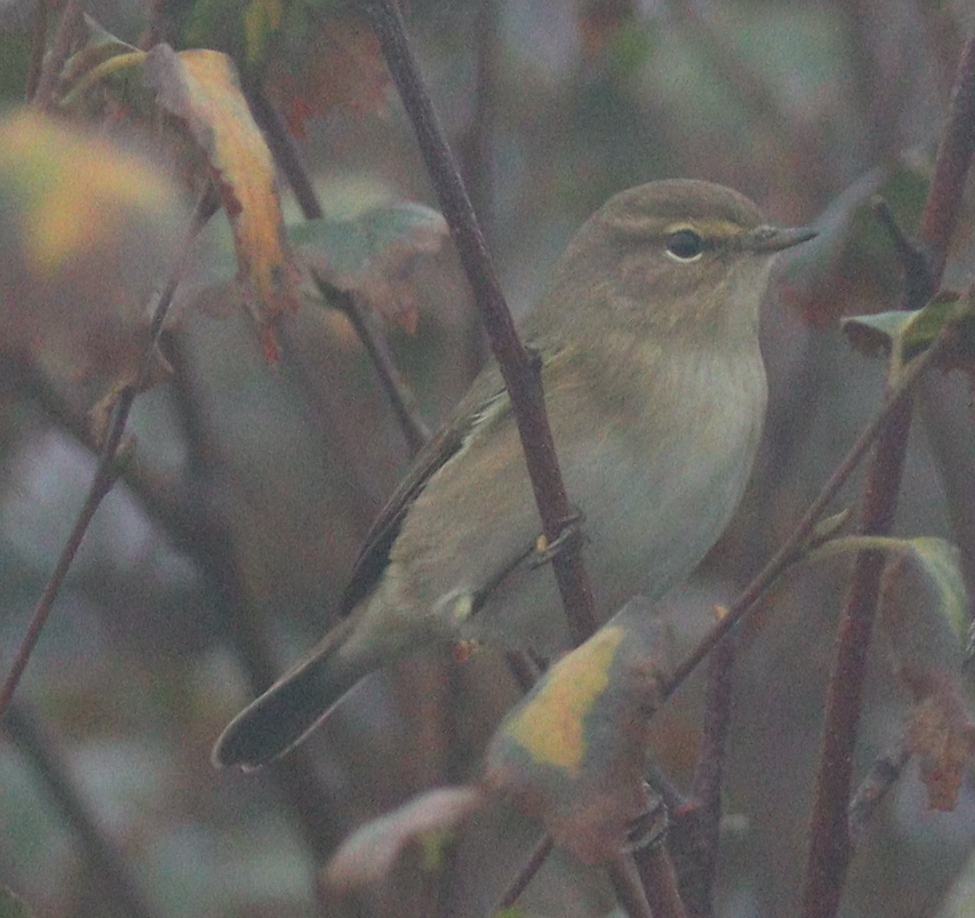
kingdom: Animalia
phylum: Chordata
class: Aves
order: Passeriformes
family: Phylloscopidae
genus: Phylloscopus
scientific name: Phylloscopus collybita
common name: Common chiffchaff
